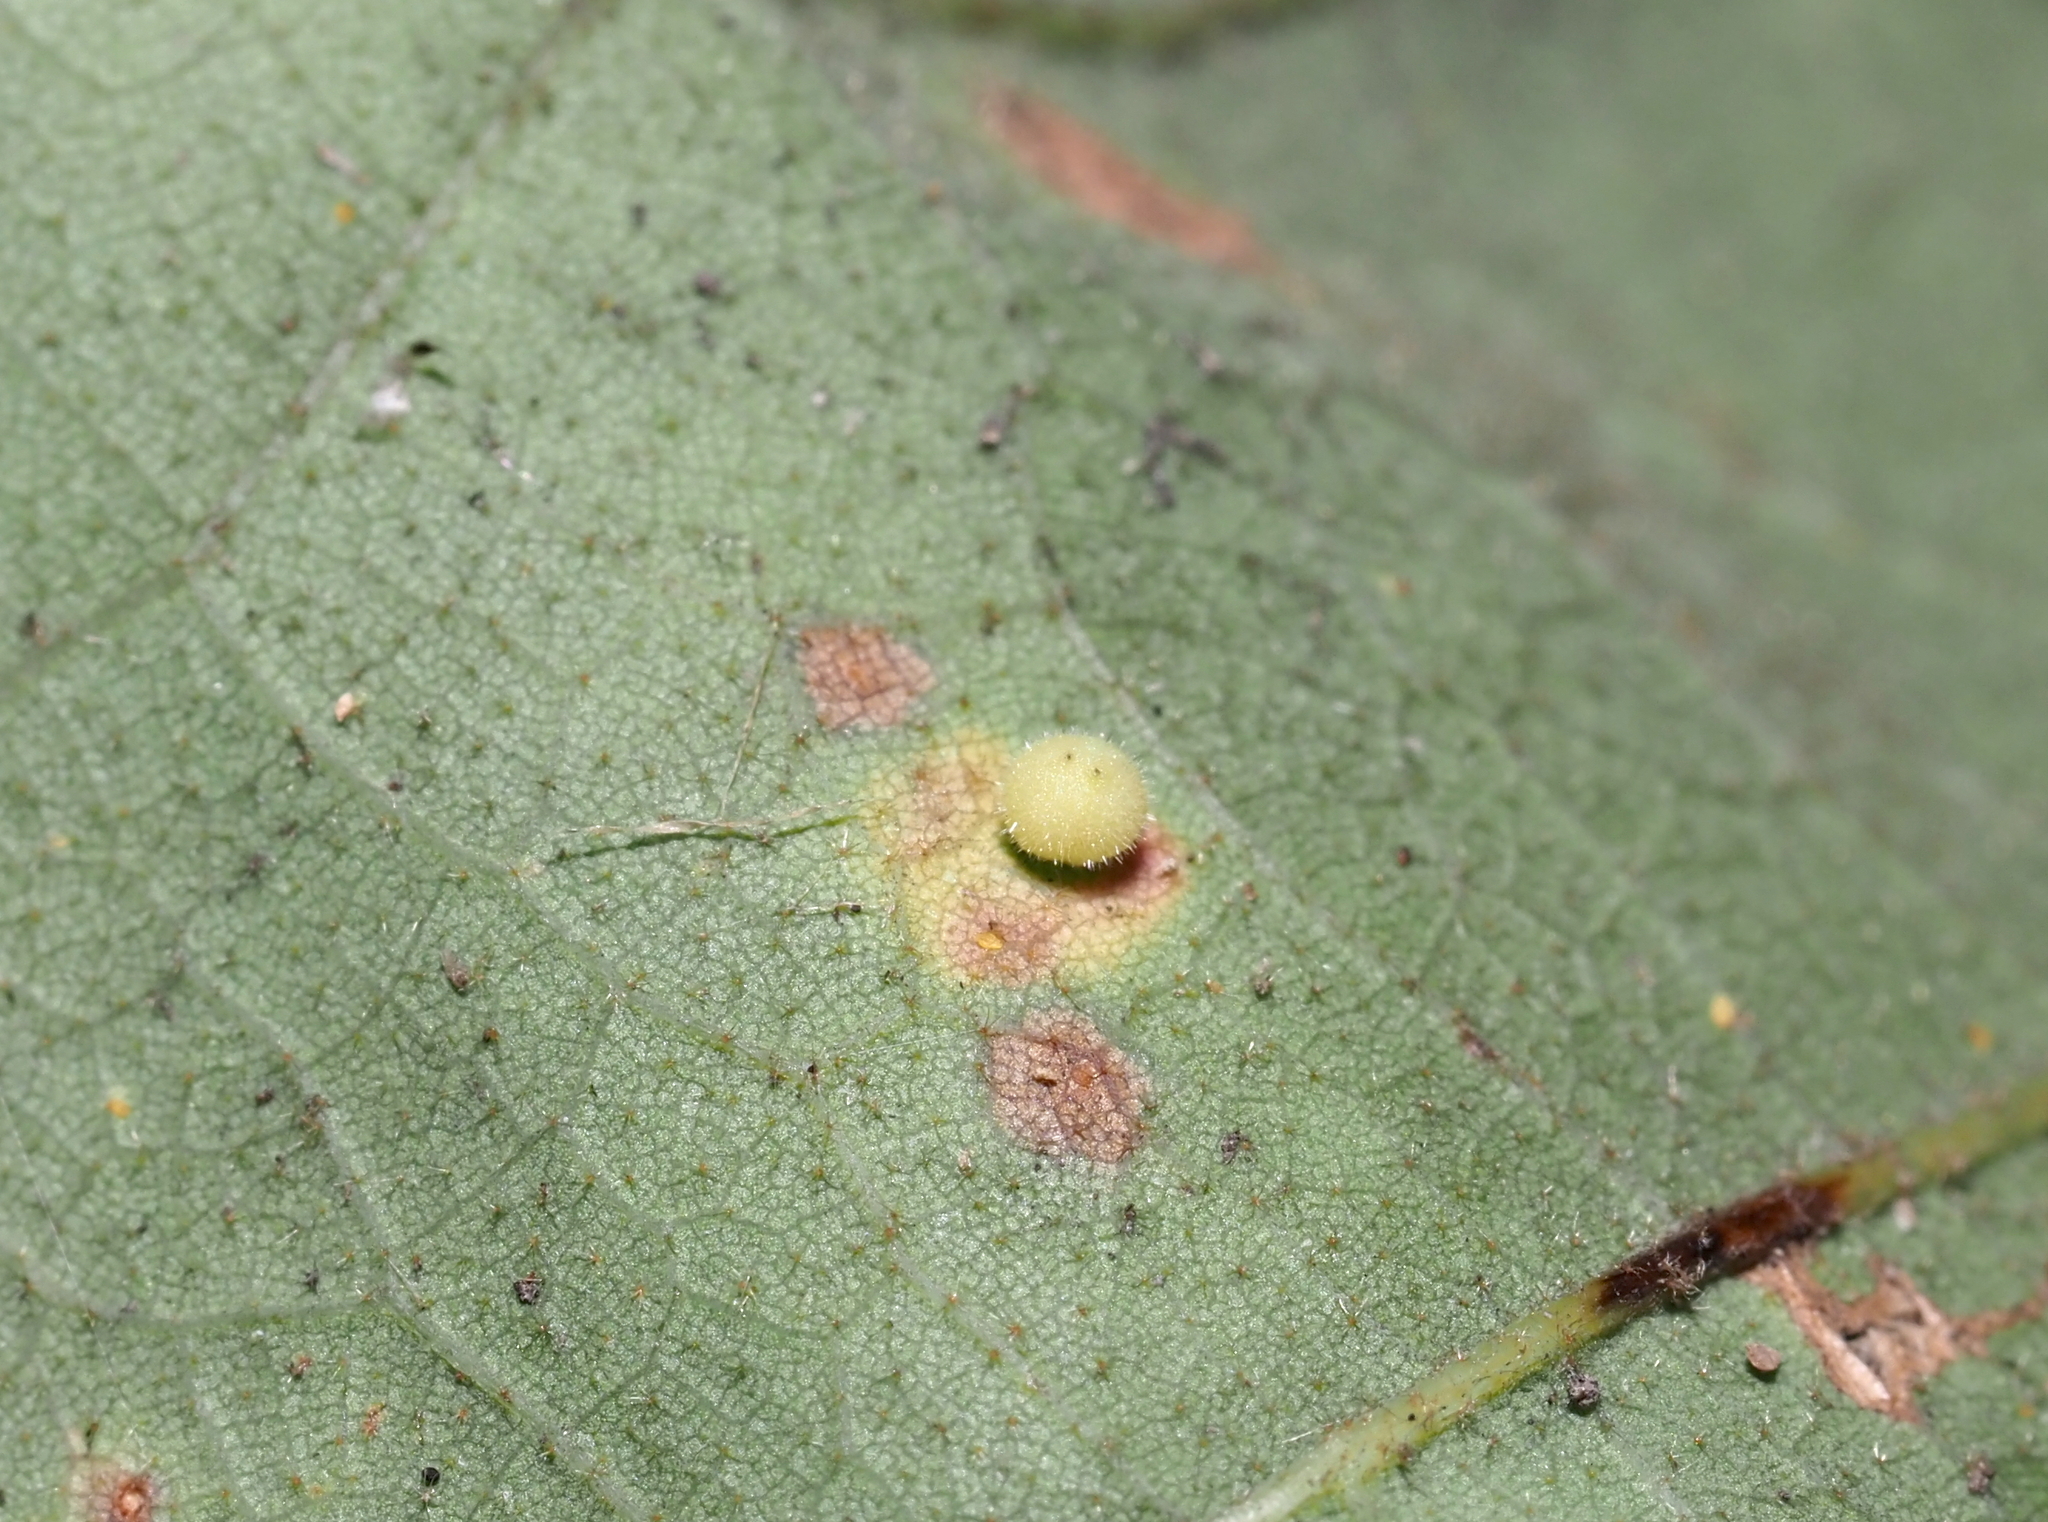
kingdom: Animalia
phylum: Arthropoda
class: Insecta
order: Hymenoptera
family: Cynipidae
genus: Neuroterus
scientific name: Neuroterus saltarius
